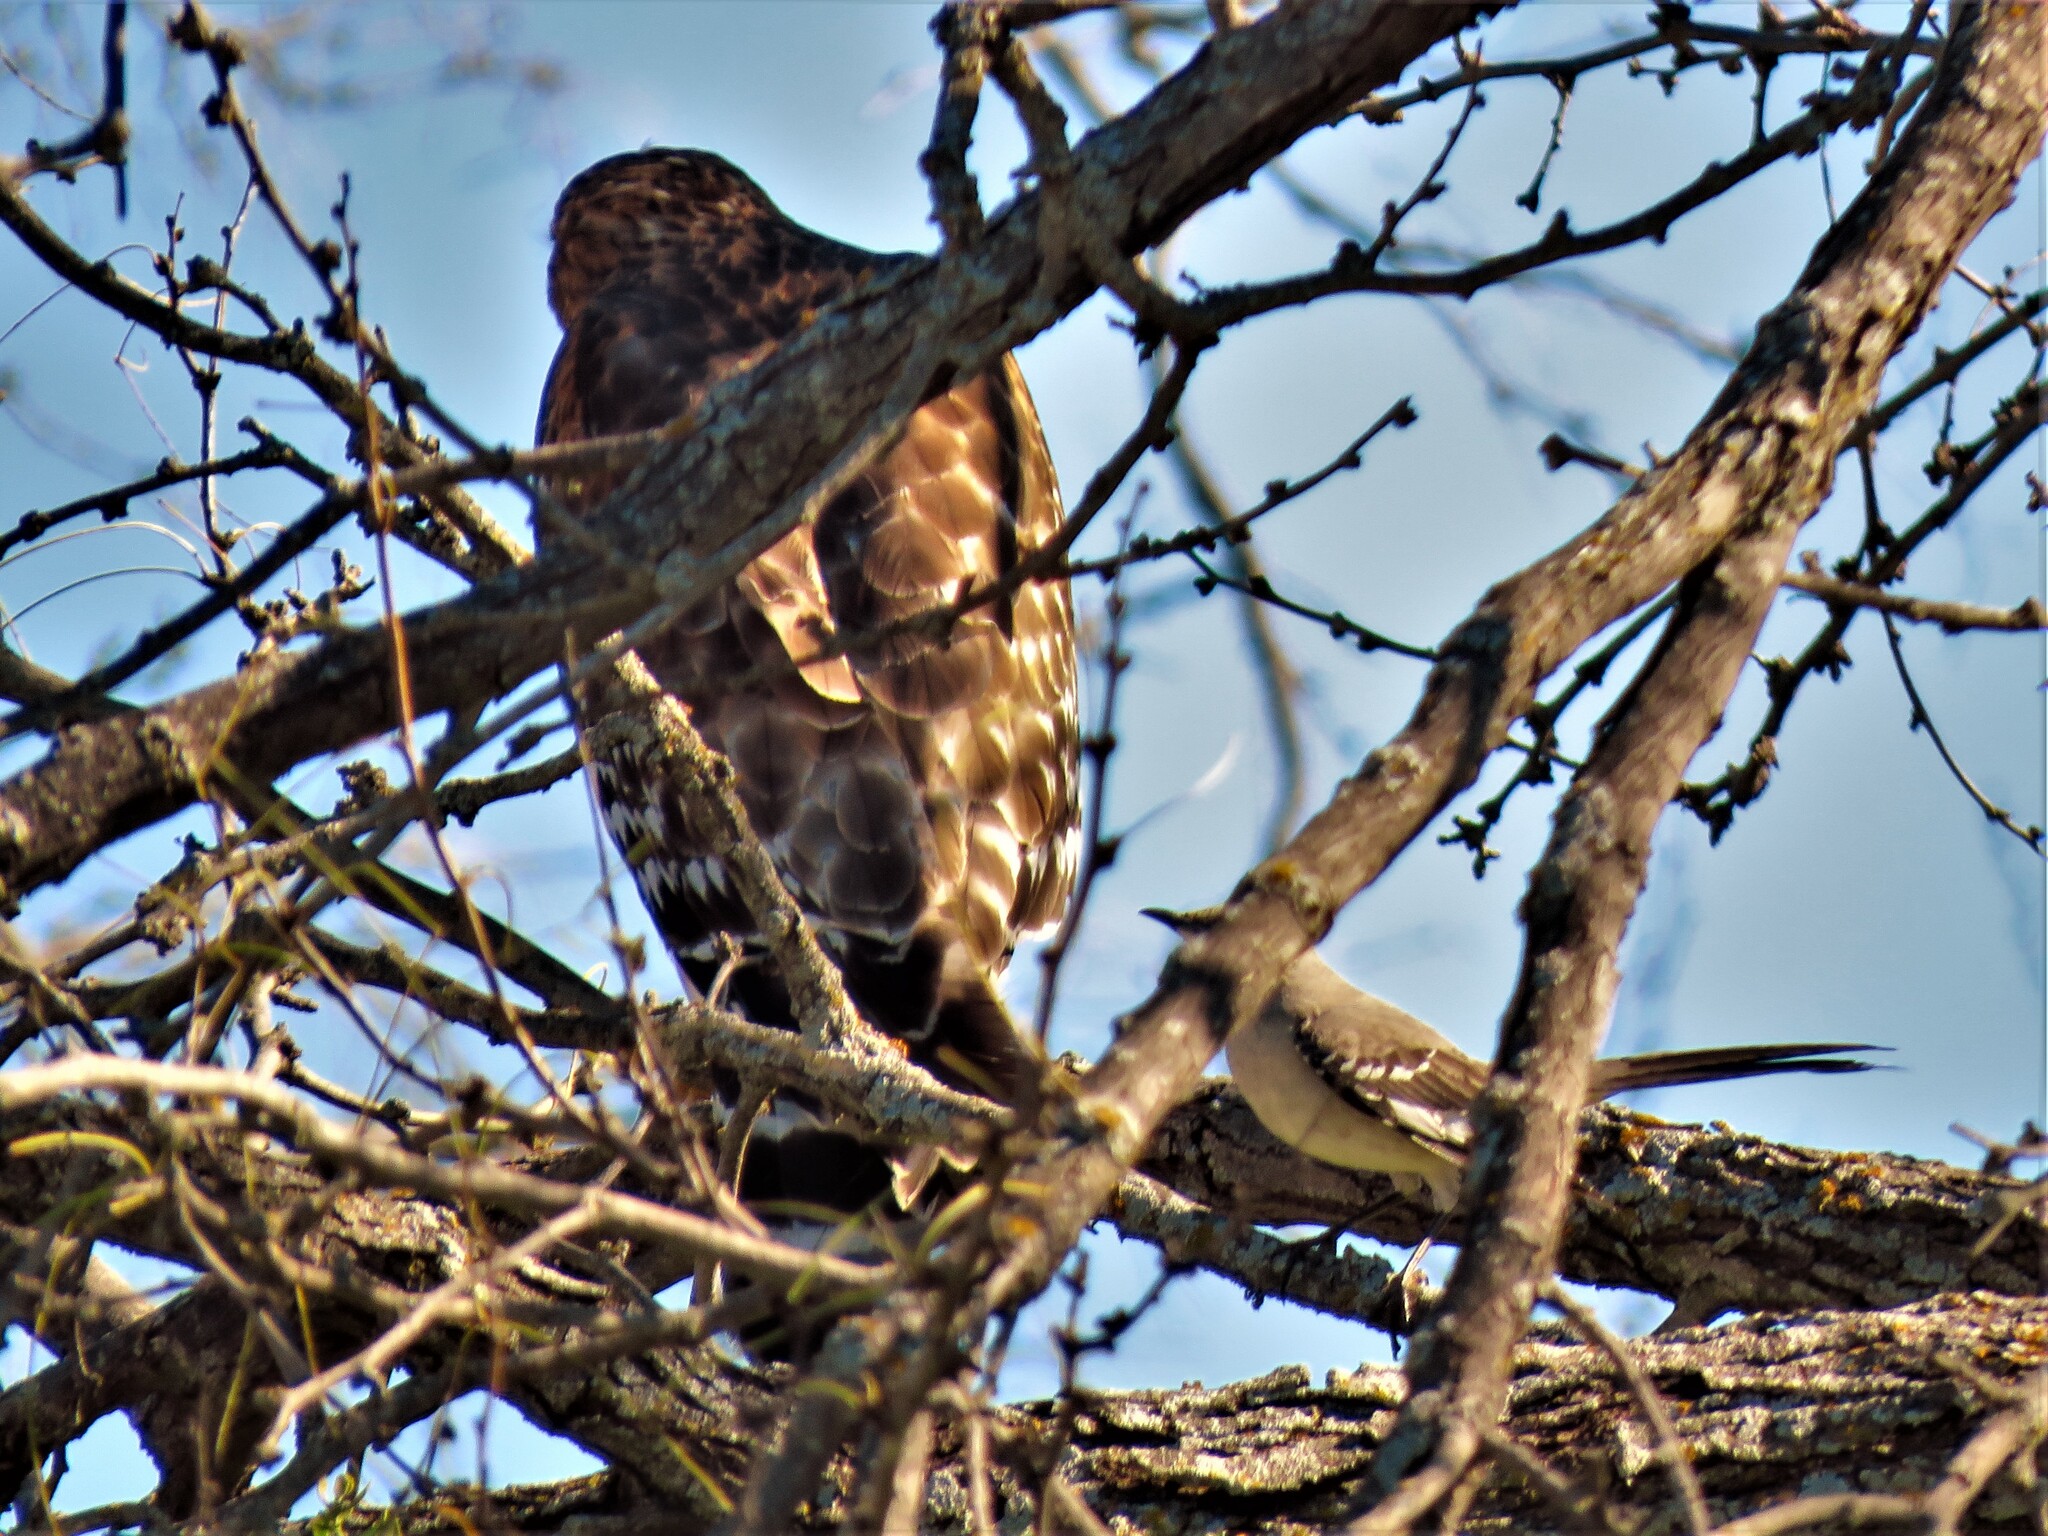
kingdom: Animalia
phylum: Chordata
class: Aves
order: Accipitriformes
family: Accipitridae
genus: Buteo
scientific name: Buteo lineatus
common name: Red-shouldered hawk
